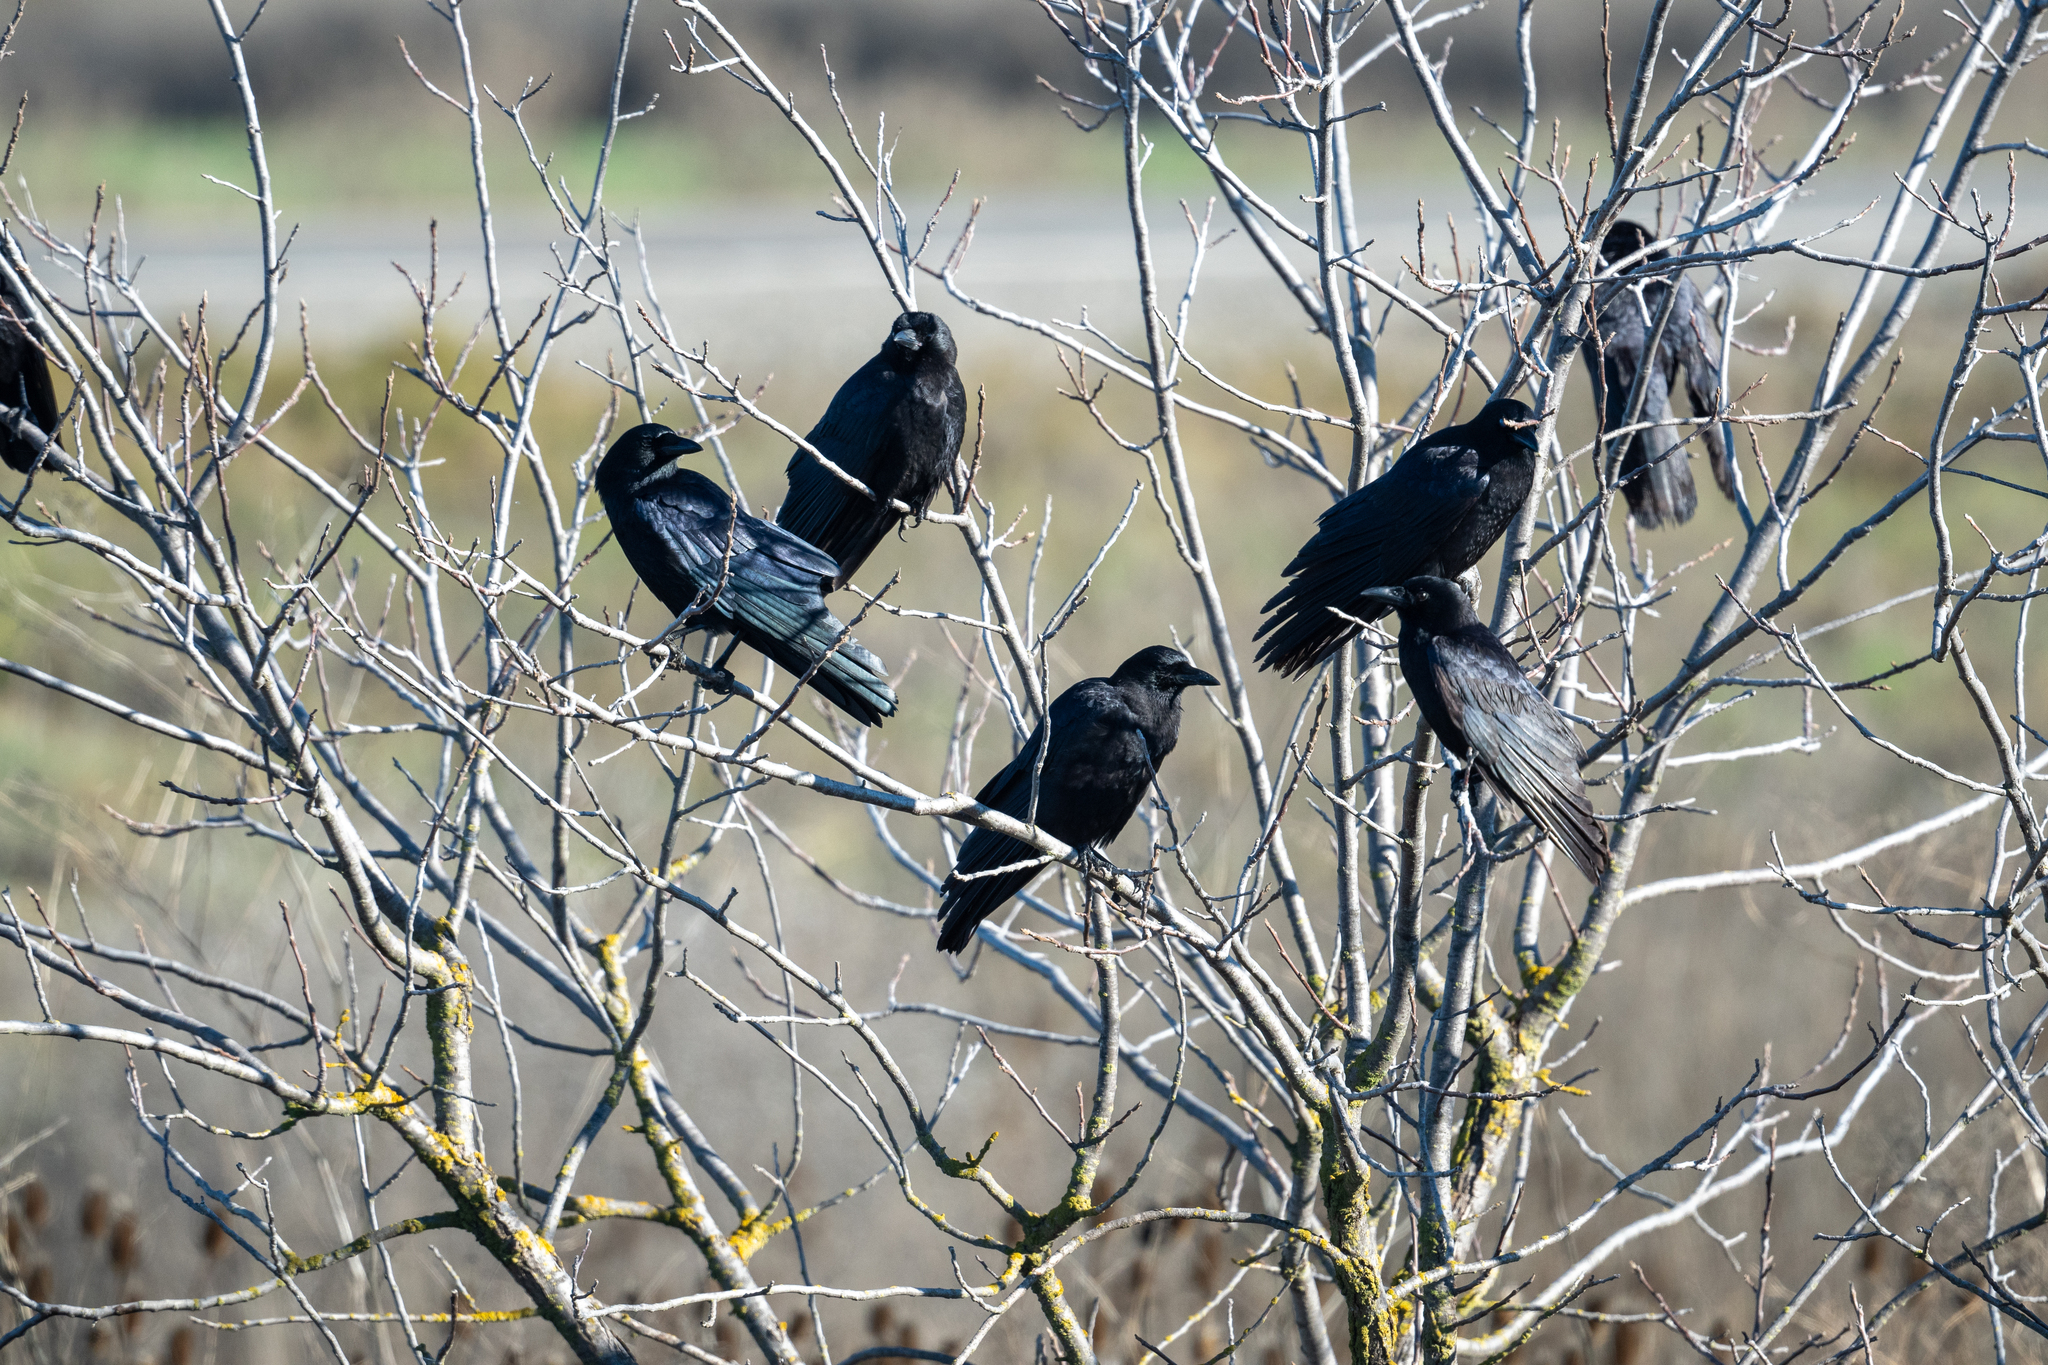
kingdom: Animalia
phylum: Chordata
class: Aves
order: Passeriformes
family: Corvidae
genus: Corvus
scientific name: Corvus corax
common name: Common raven
